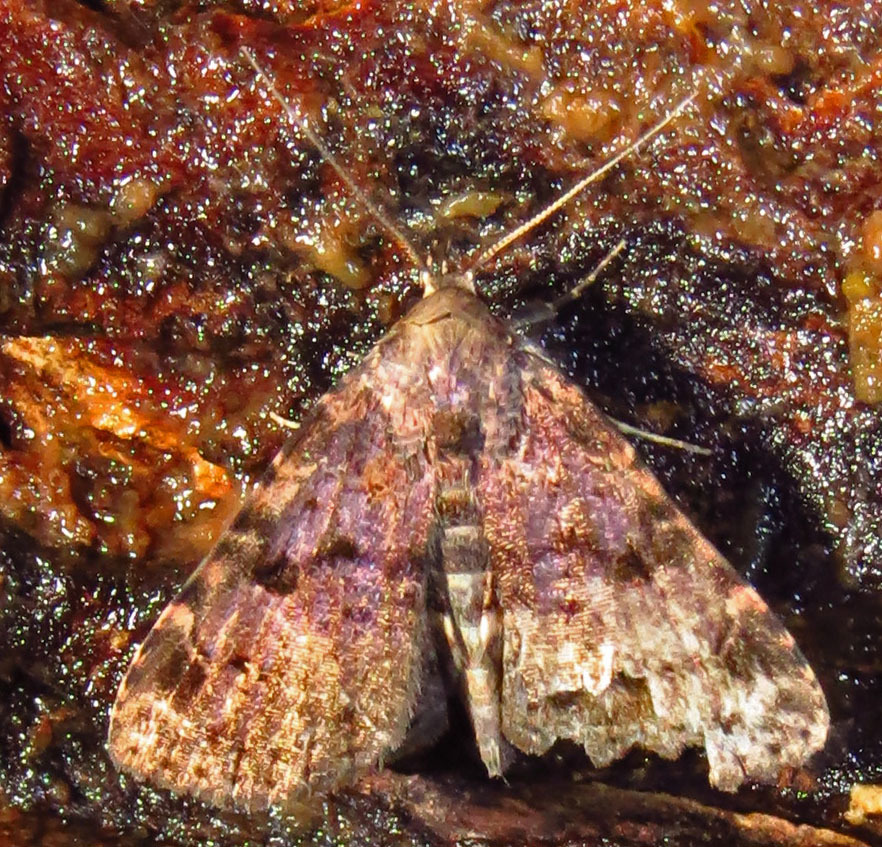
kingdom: Animalia
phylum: Arthropoda
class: Insecta
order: Lepidoptera
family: Erebidae
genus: Metalectra
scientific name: Metalectra quadrisignata
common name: Four-spotted fungus moth
